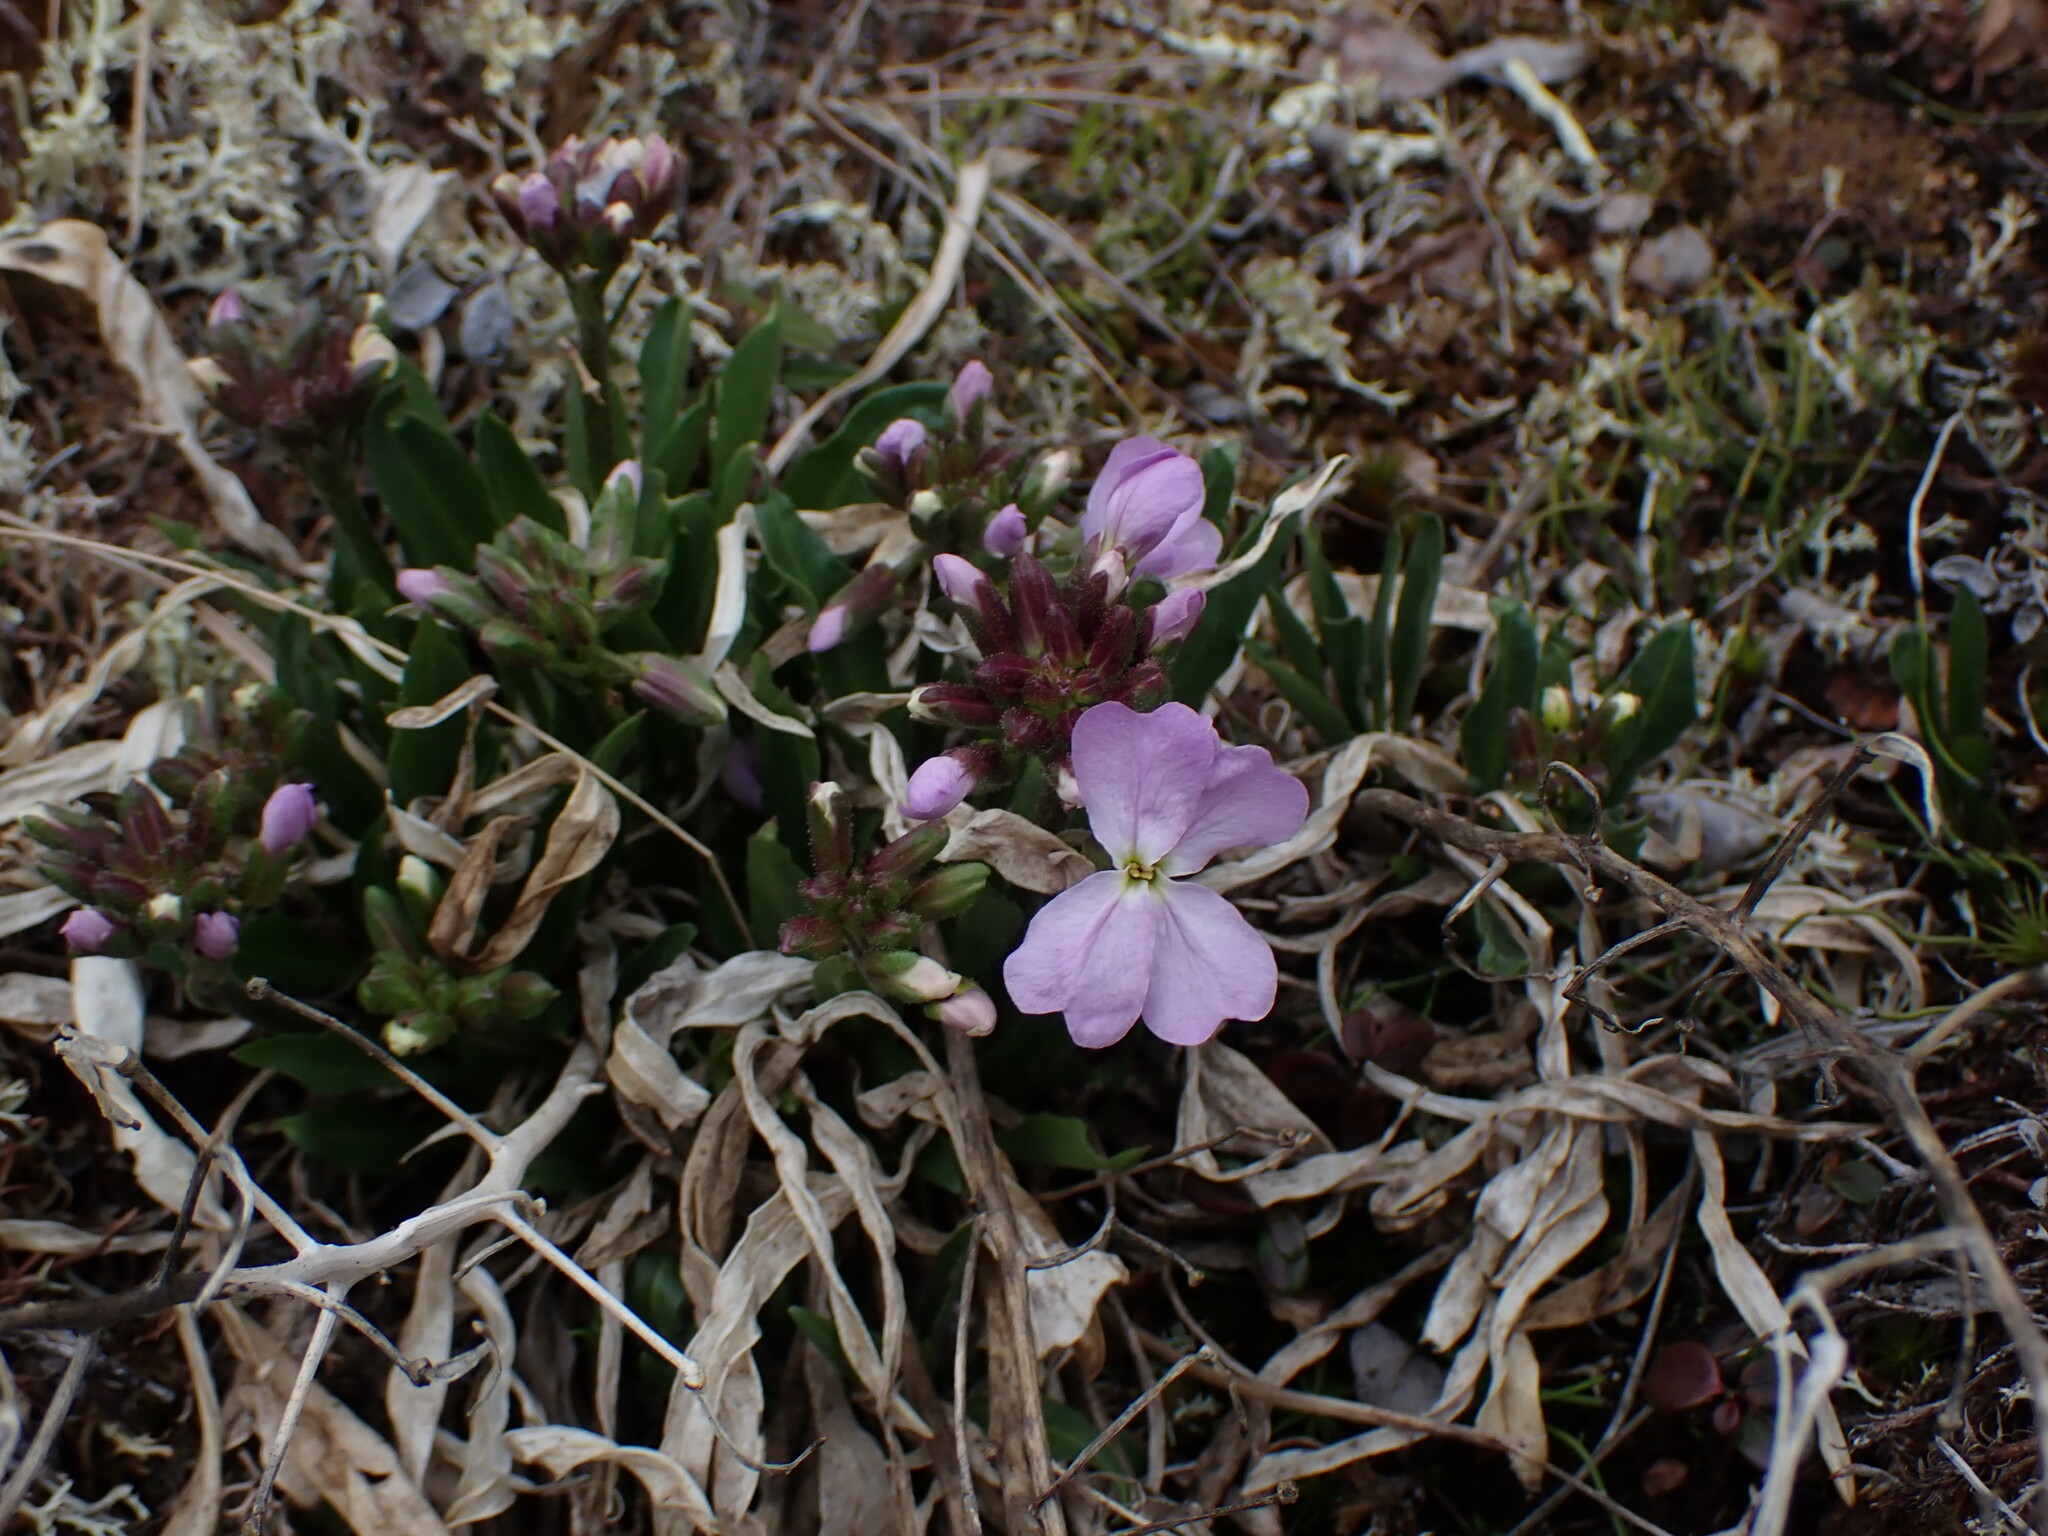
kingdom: Plantae
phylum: Tracheophyta
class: Magnoliopsida
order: Brassicales
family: Brassicaceae
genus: Parrya
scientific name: Parrya nudicaulis
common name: Naked-stemmed false wallflower
